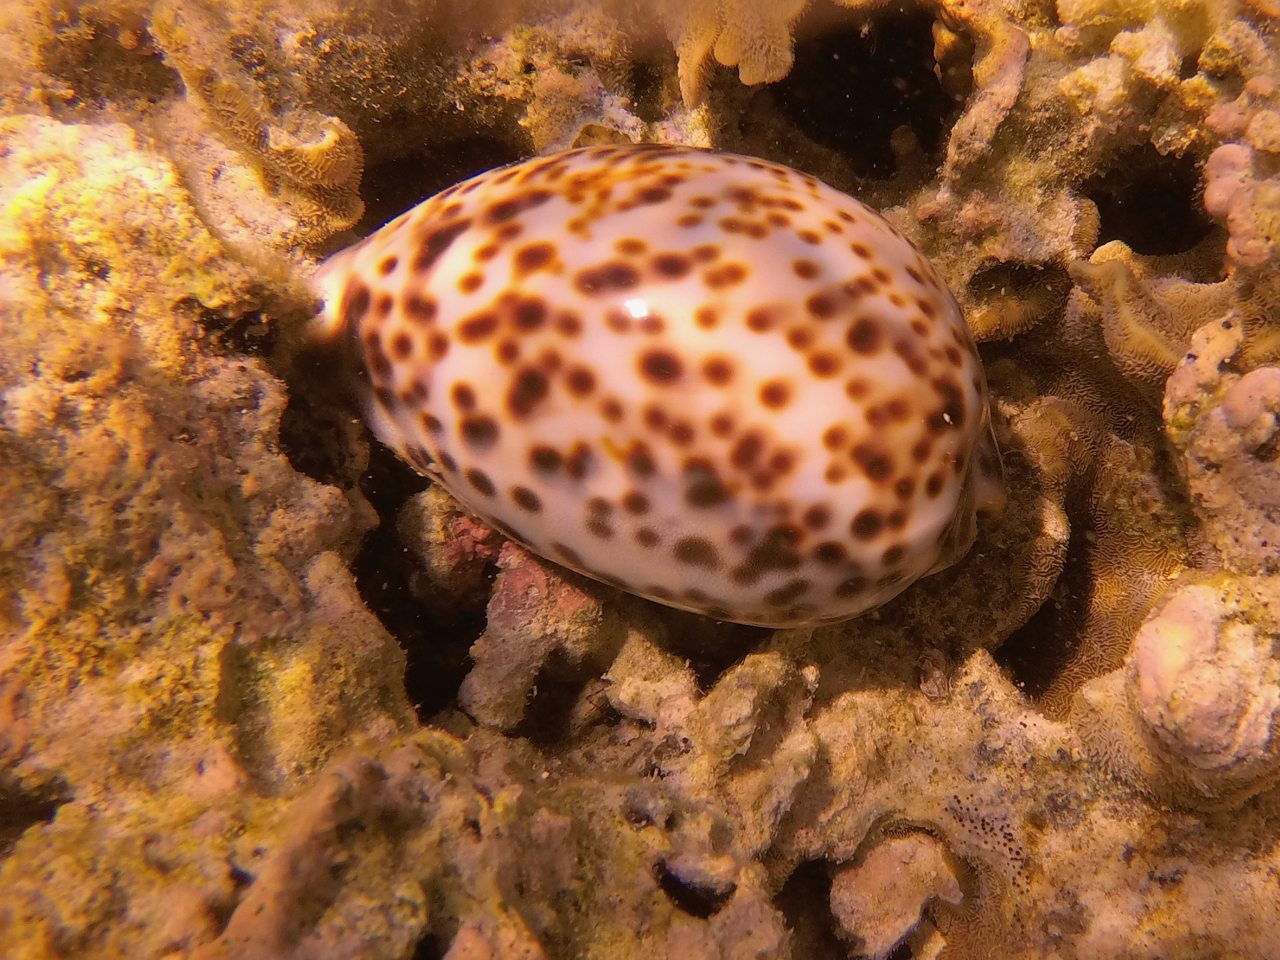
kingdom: Animalia
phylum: Mollusca
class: Gastropoda
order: Littorinimorpha
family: Cypraeidae
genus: Cypraea
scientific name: Cypraea tigris
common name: Tiger cowrie
